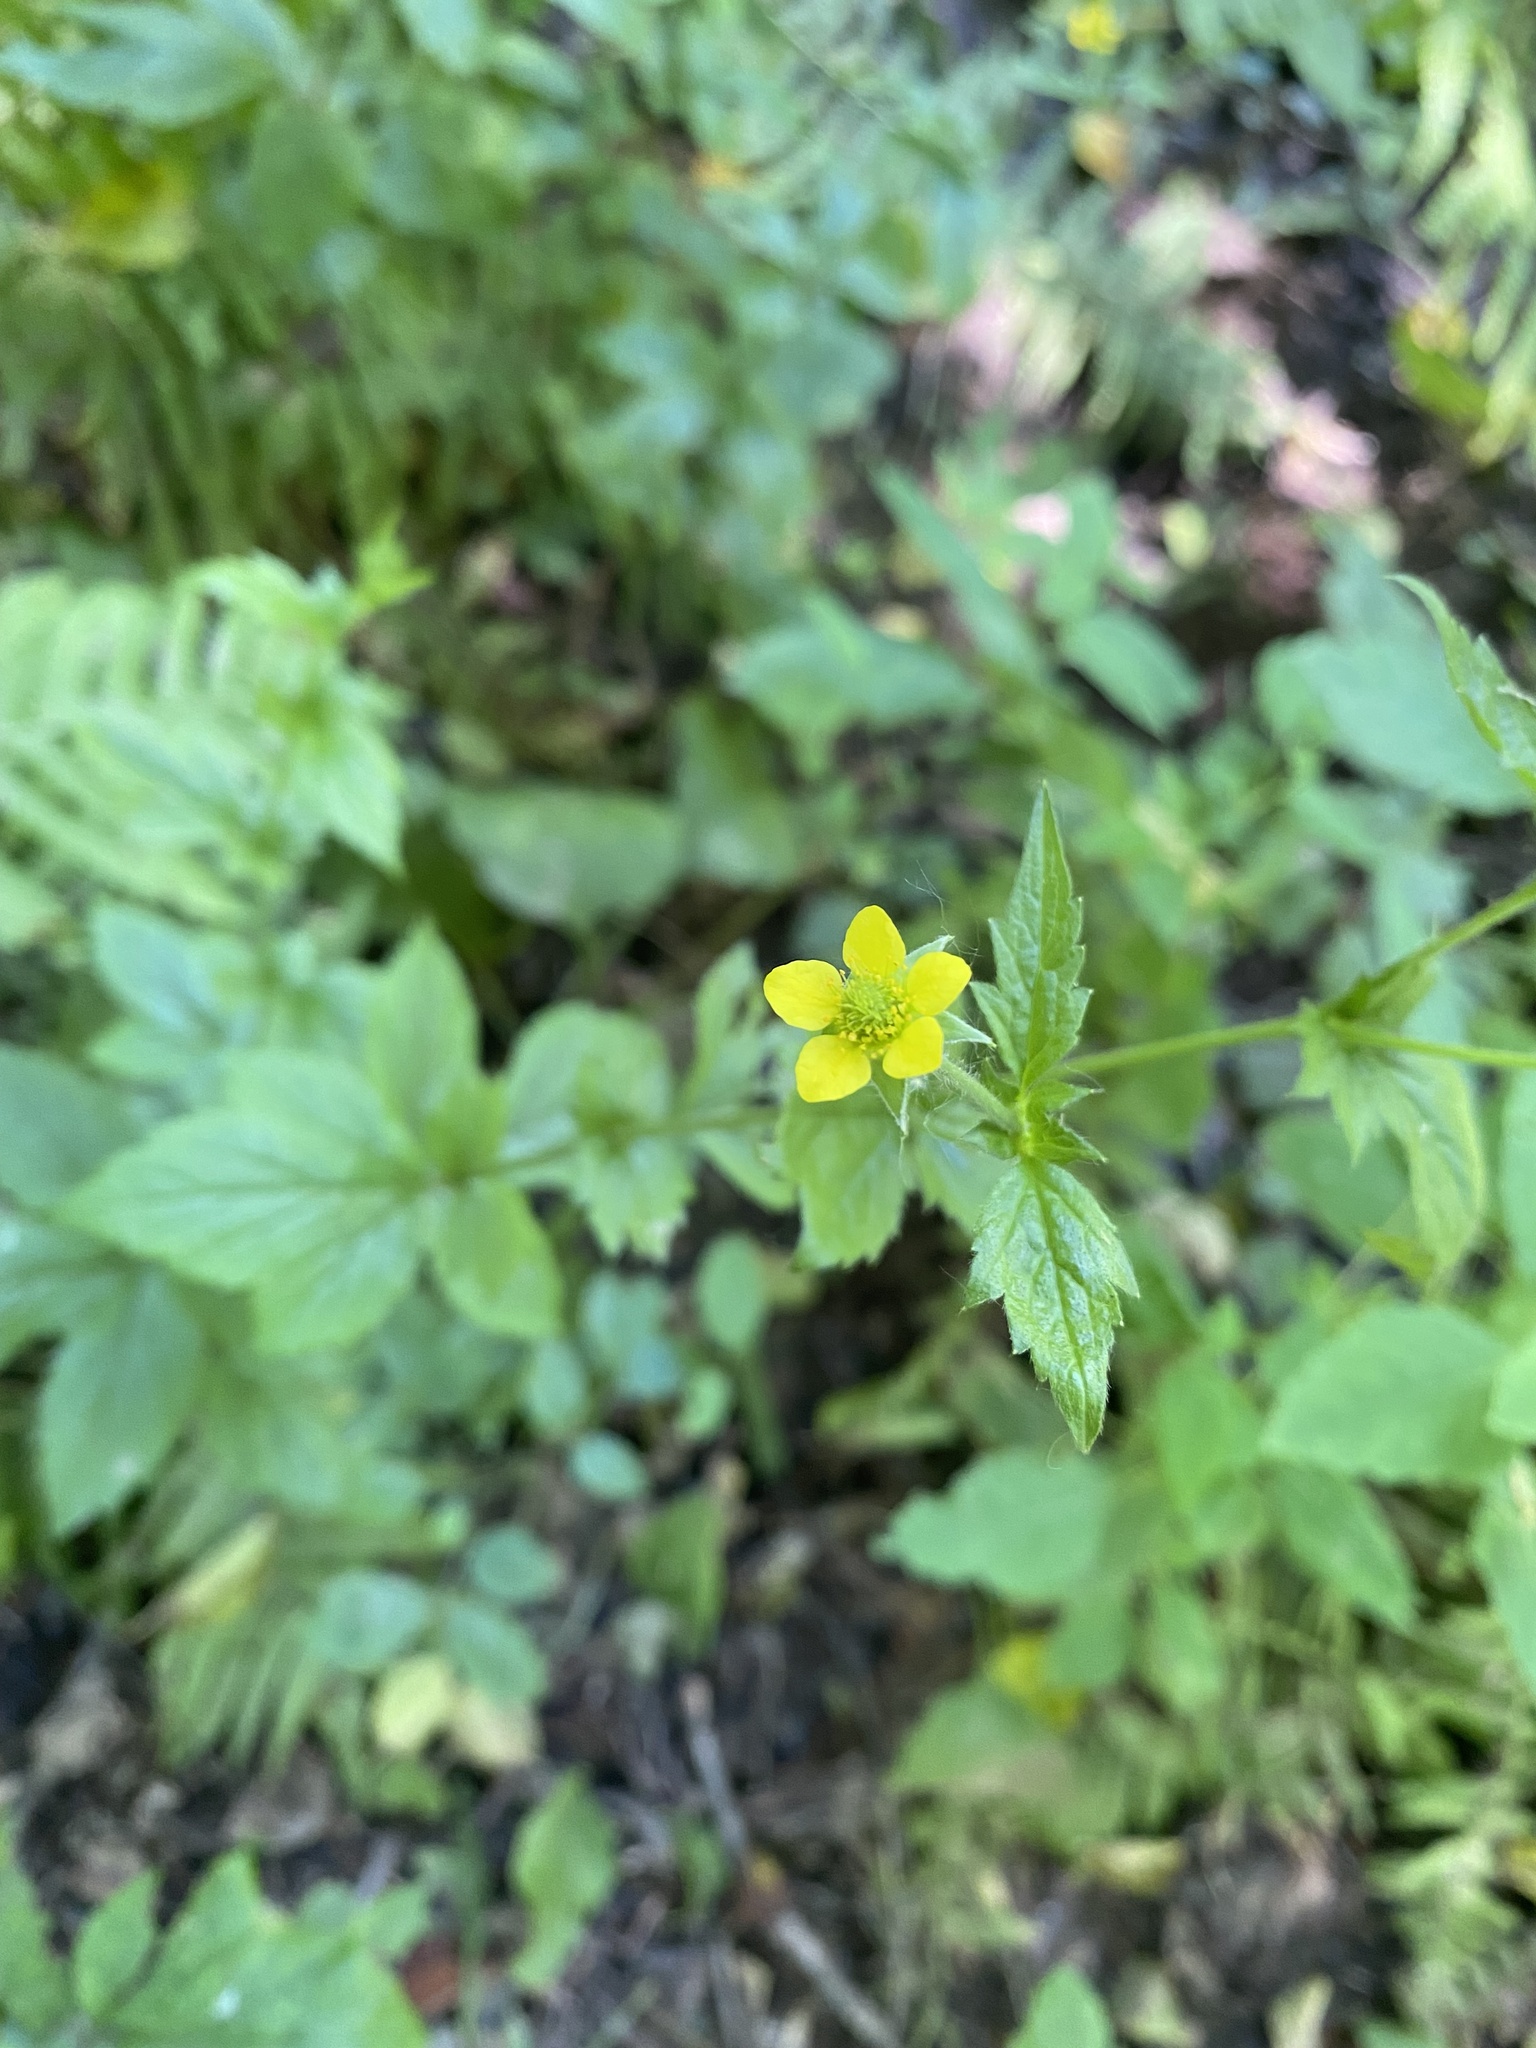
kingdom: Plantae
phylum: Tracheophyta
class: Magnoliopsida
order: Rosales
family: Rosaceae
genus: Geum
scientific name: Geum urbanum
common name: Wood avens
